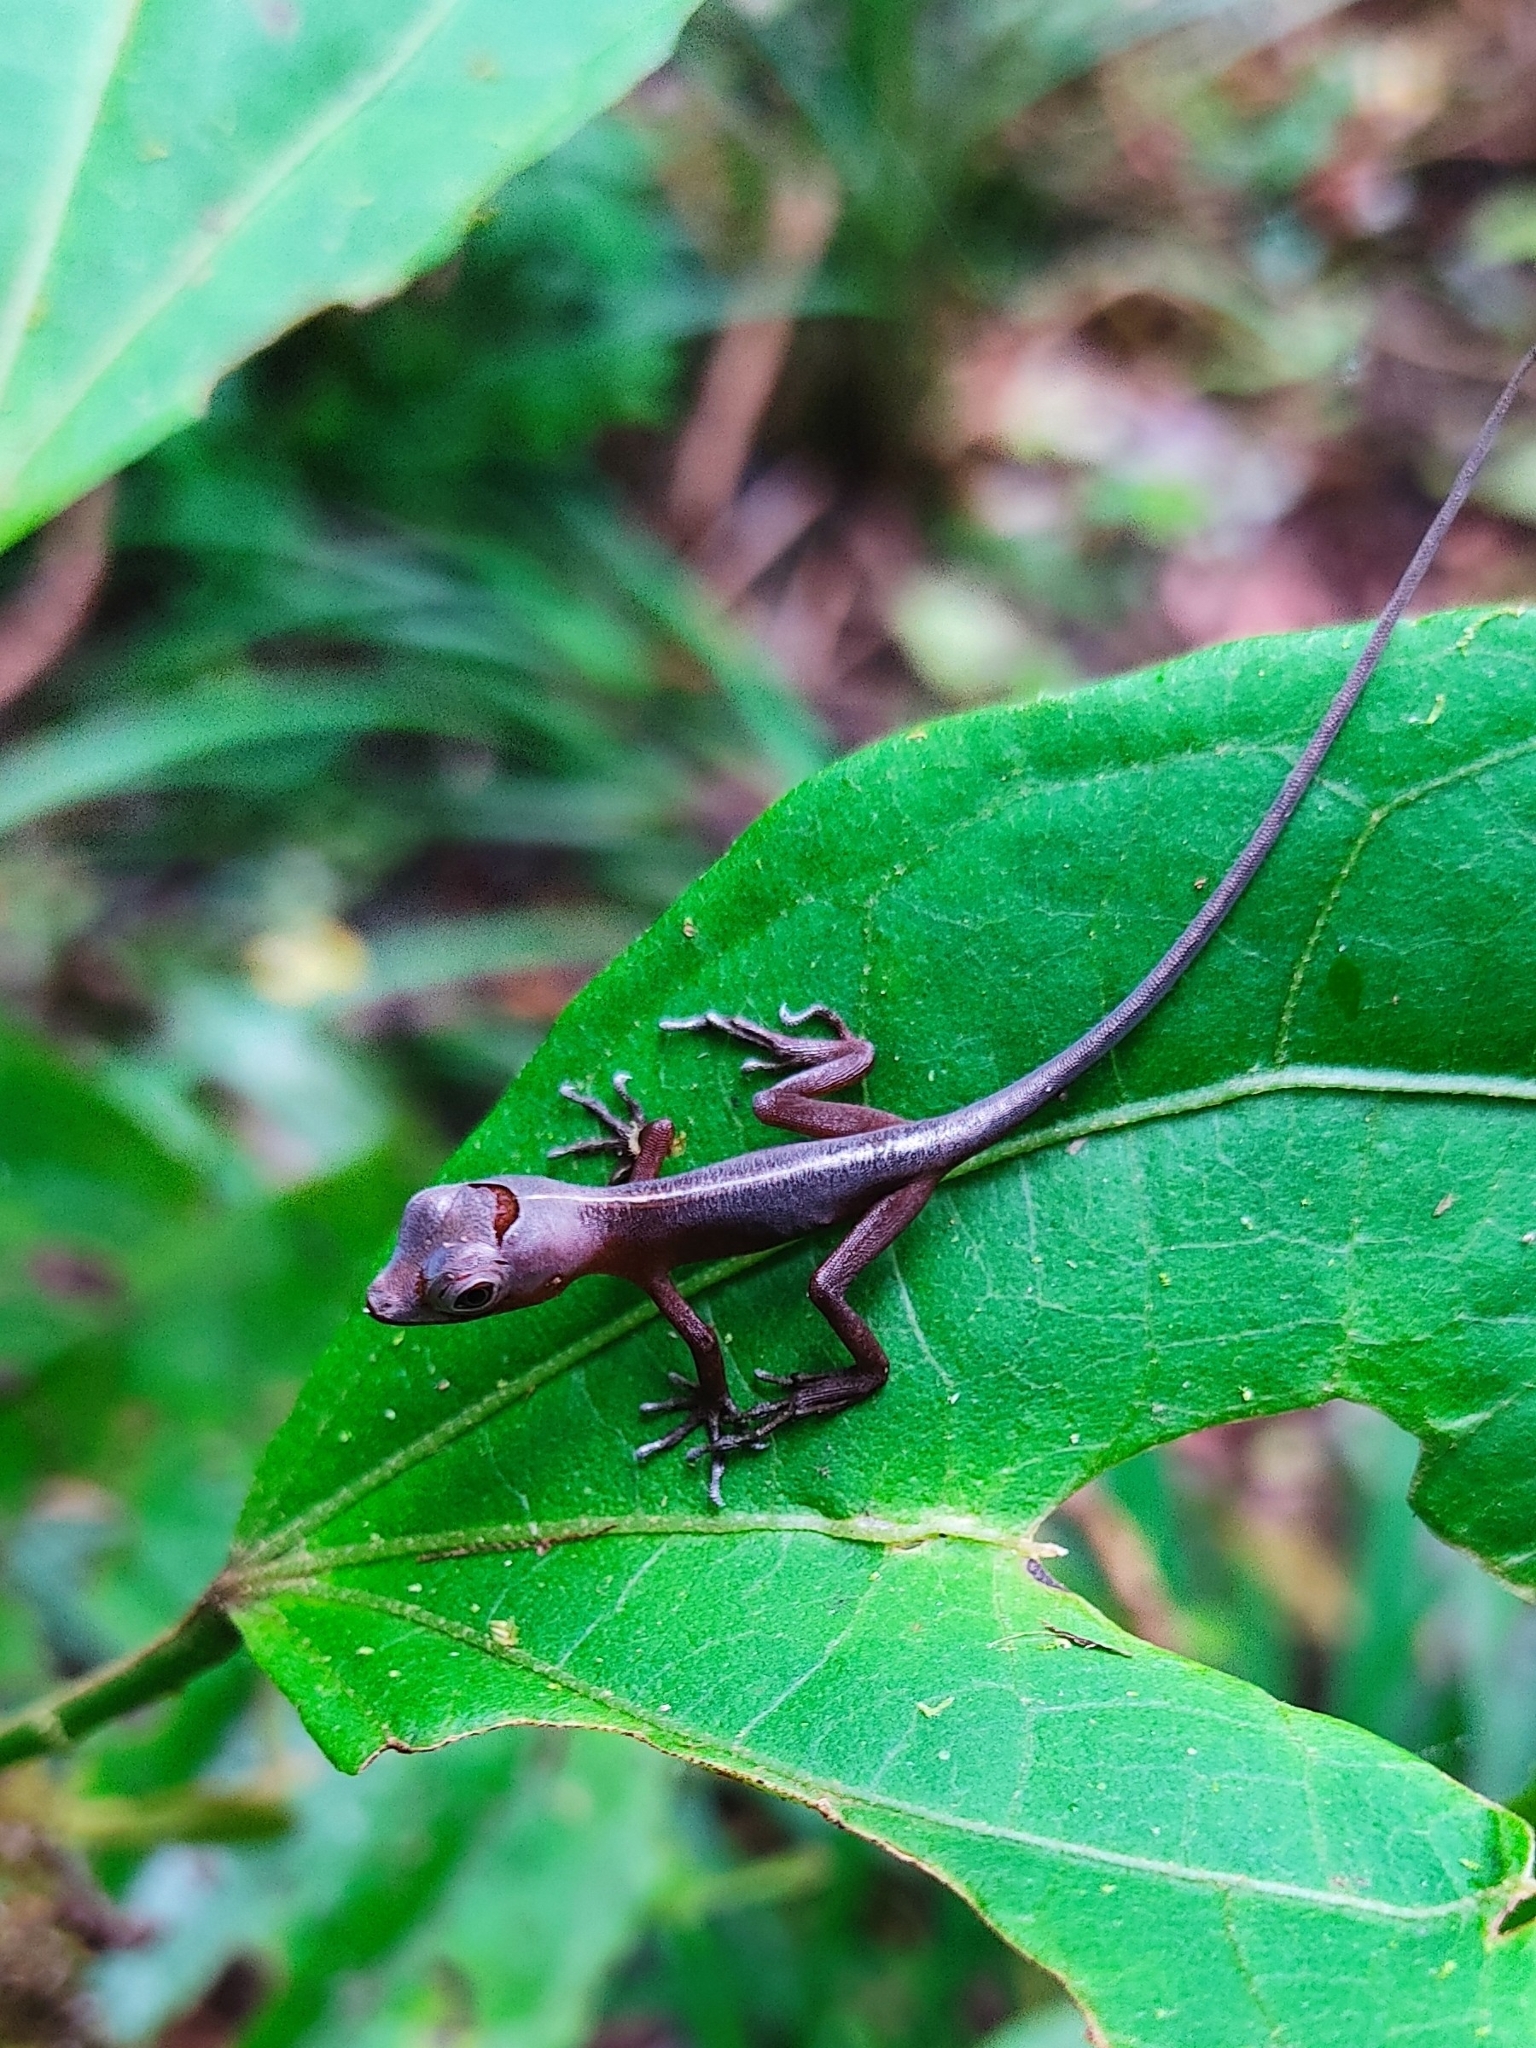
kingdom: Animalia
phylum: Chordata
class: Squamata
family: Dactyloidae
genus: Anolis
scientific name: Anolis humilis
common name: Humble anole
